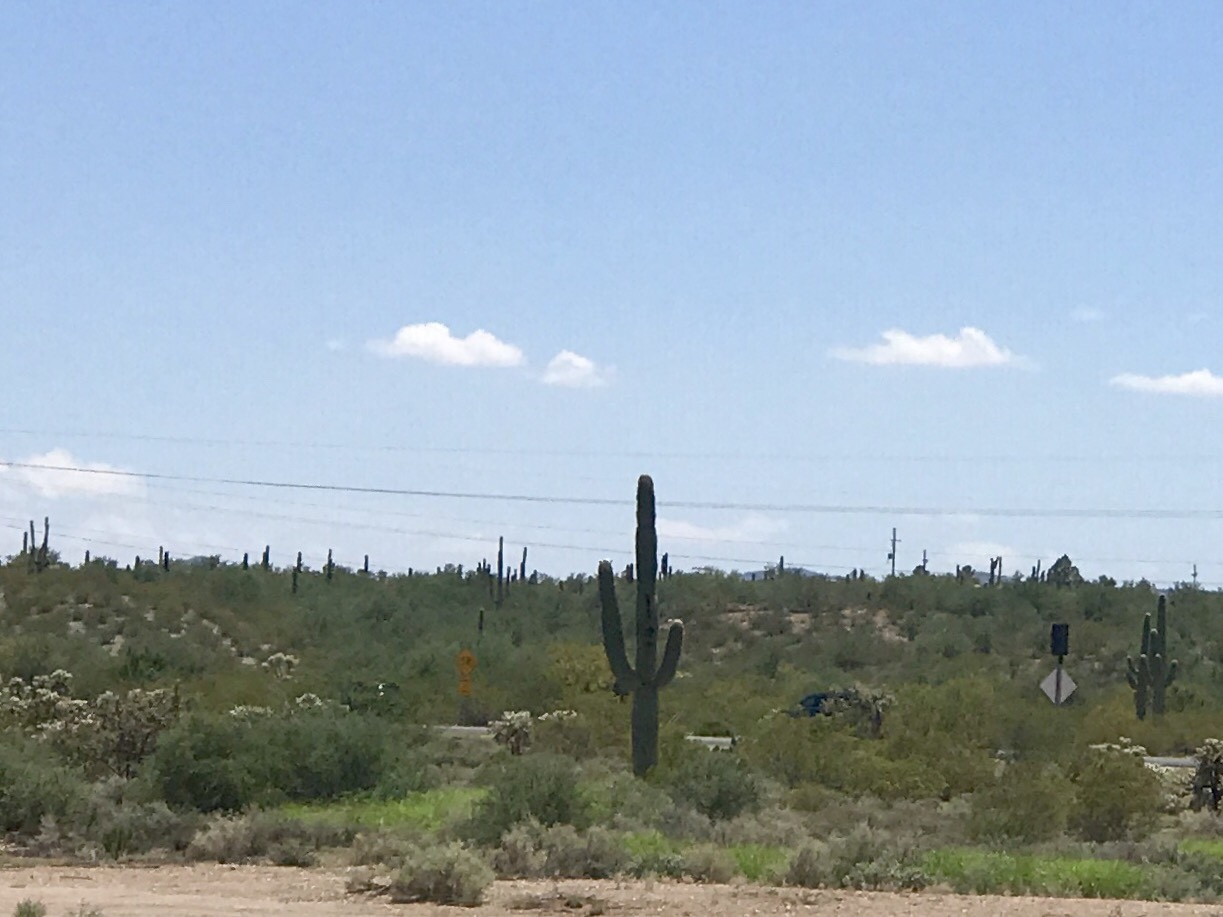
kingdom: Plantae
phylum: Tracheophyta
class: Magnoliopsida
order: Caryophyllales
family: Cactaceae
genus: Carnegiea
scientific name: Carnegiea gigantea
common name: Saguaro
